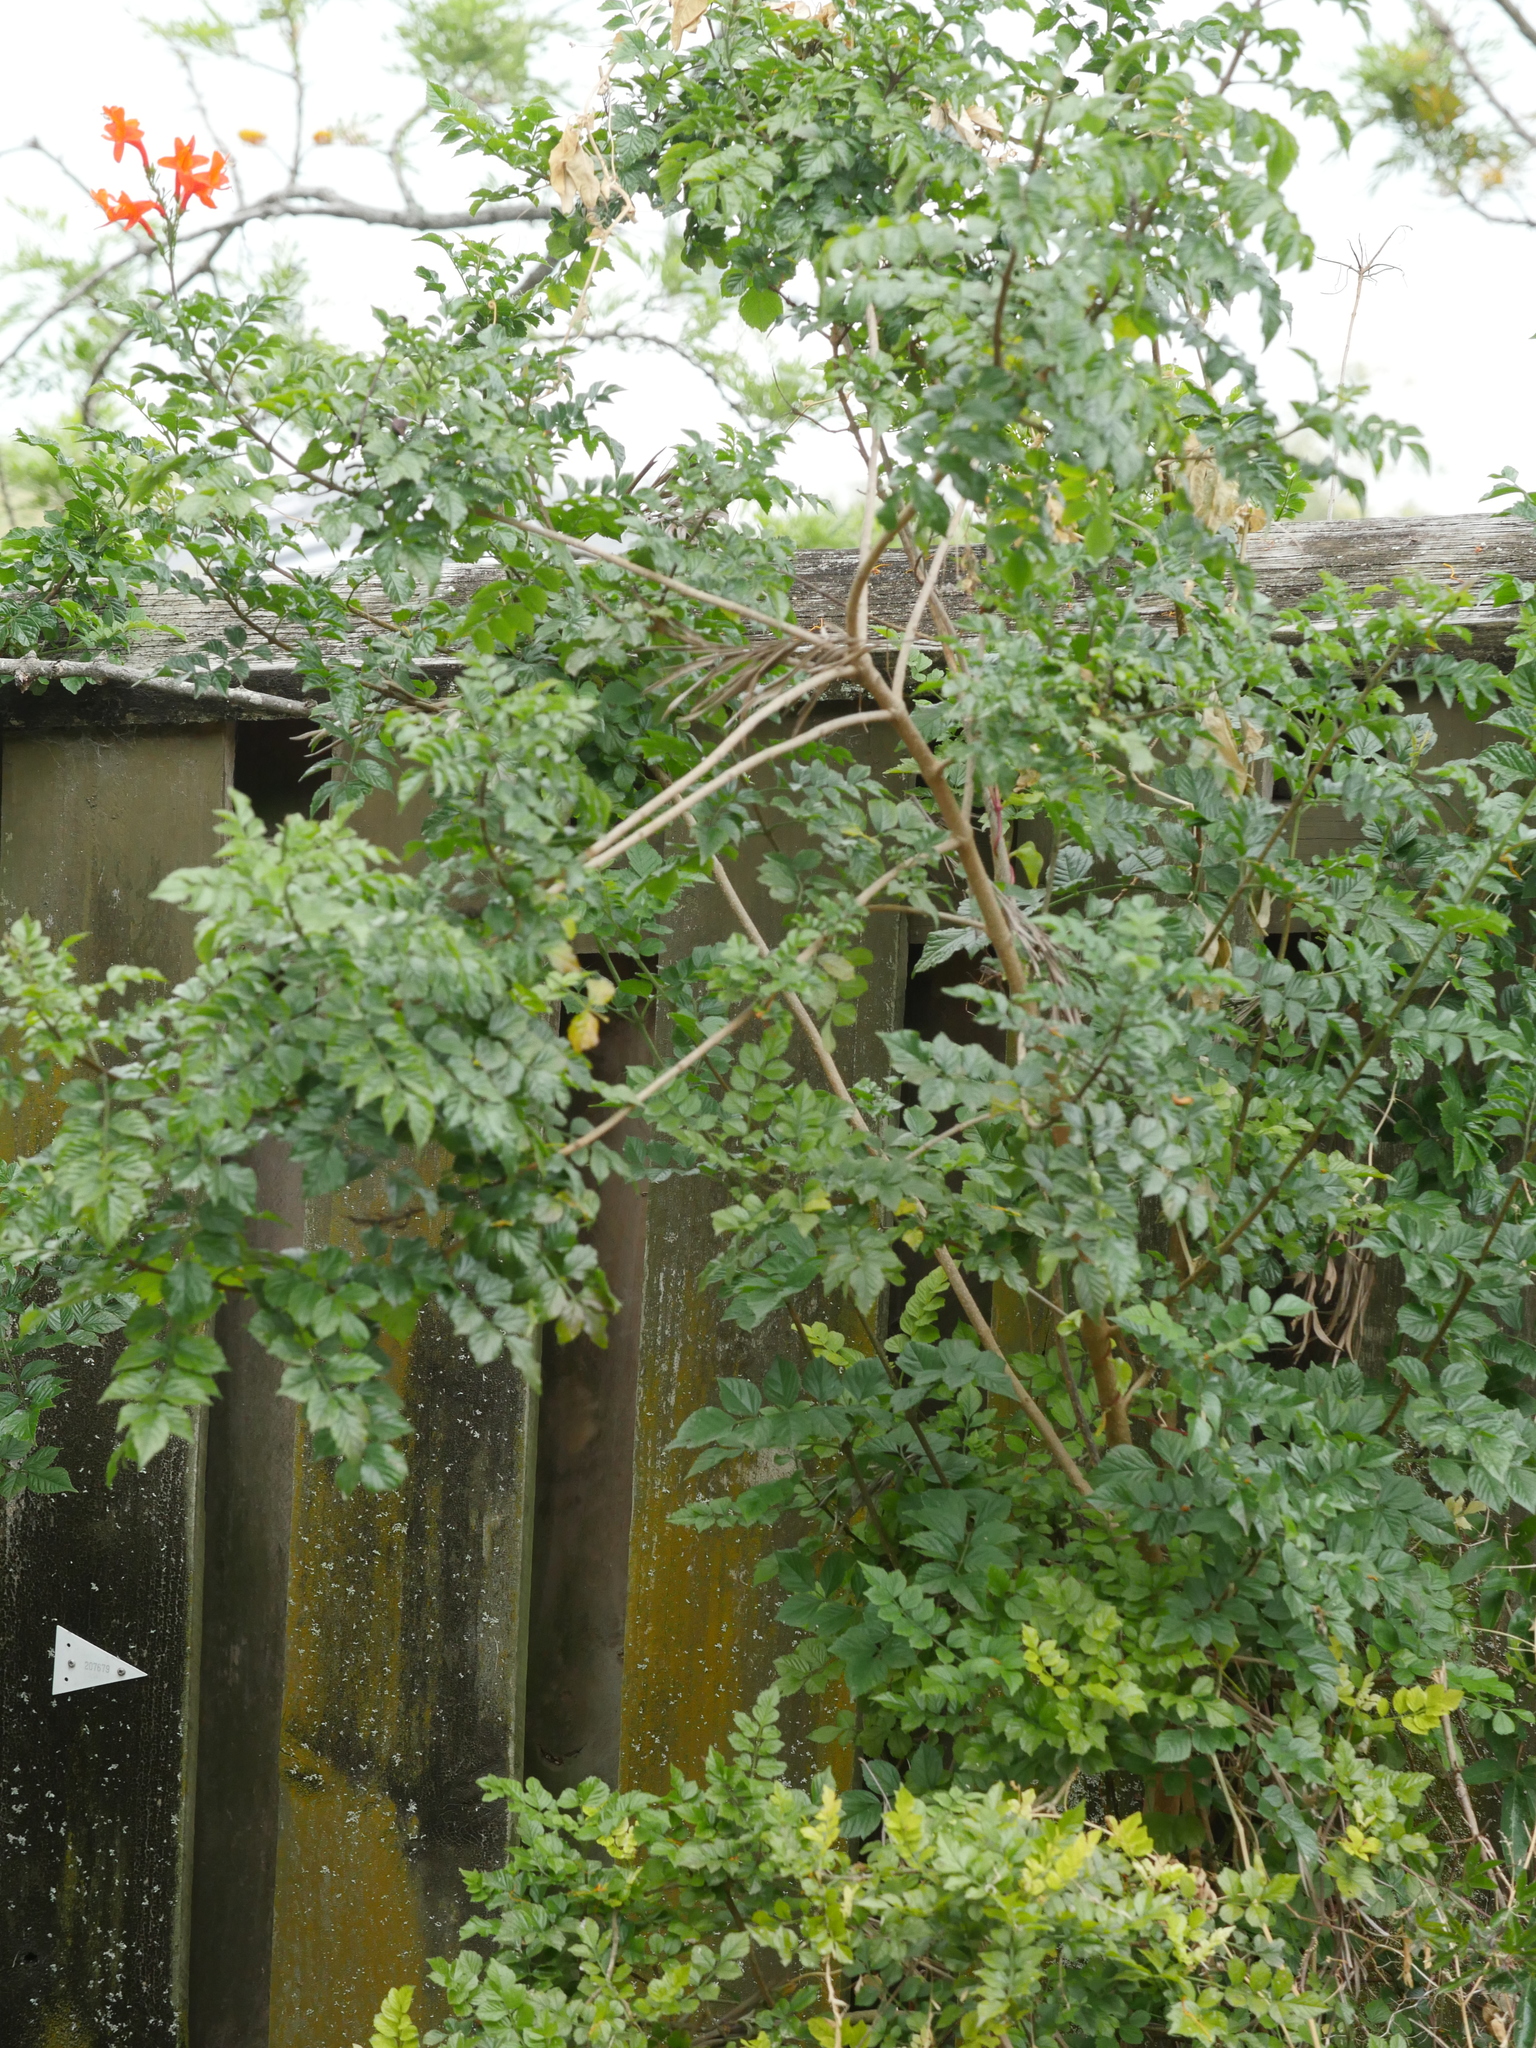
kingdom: Plantae
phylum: Tracheophyta
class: Magnoliopsida
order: Lamiales
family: Bignoniaceae
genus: Tecomaria
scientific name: Tecomaria capensis
